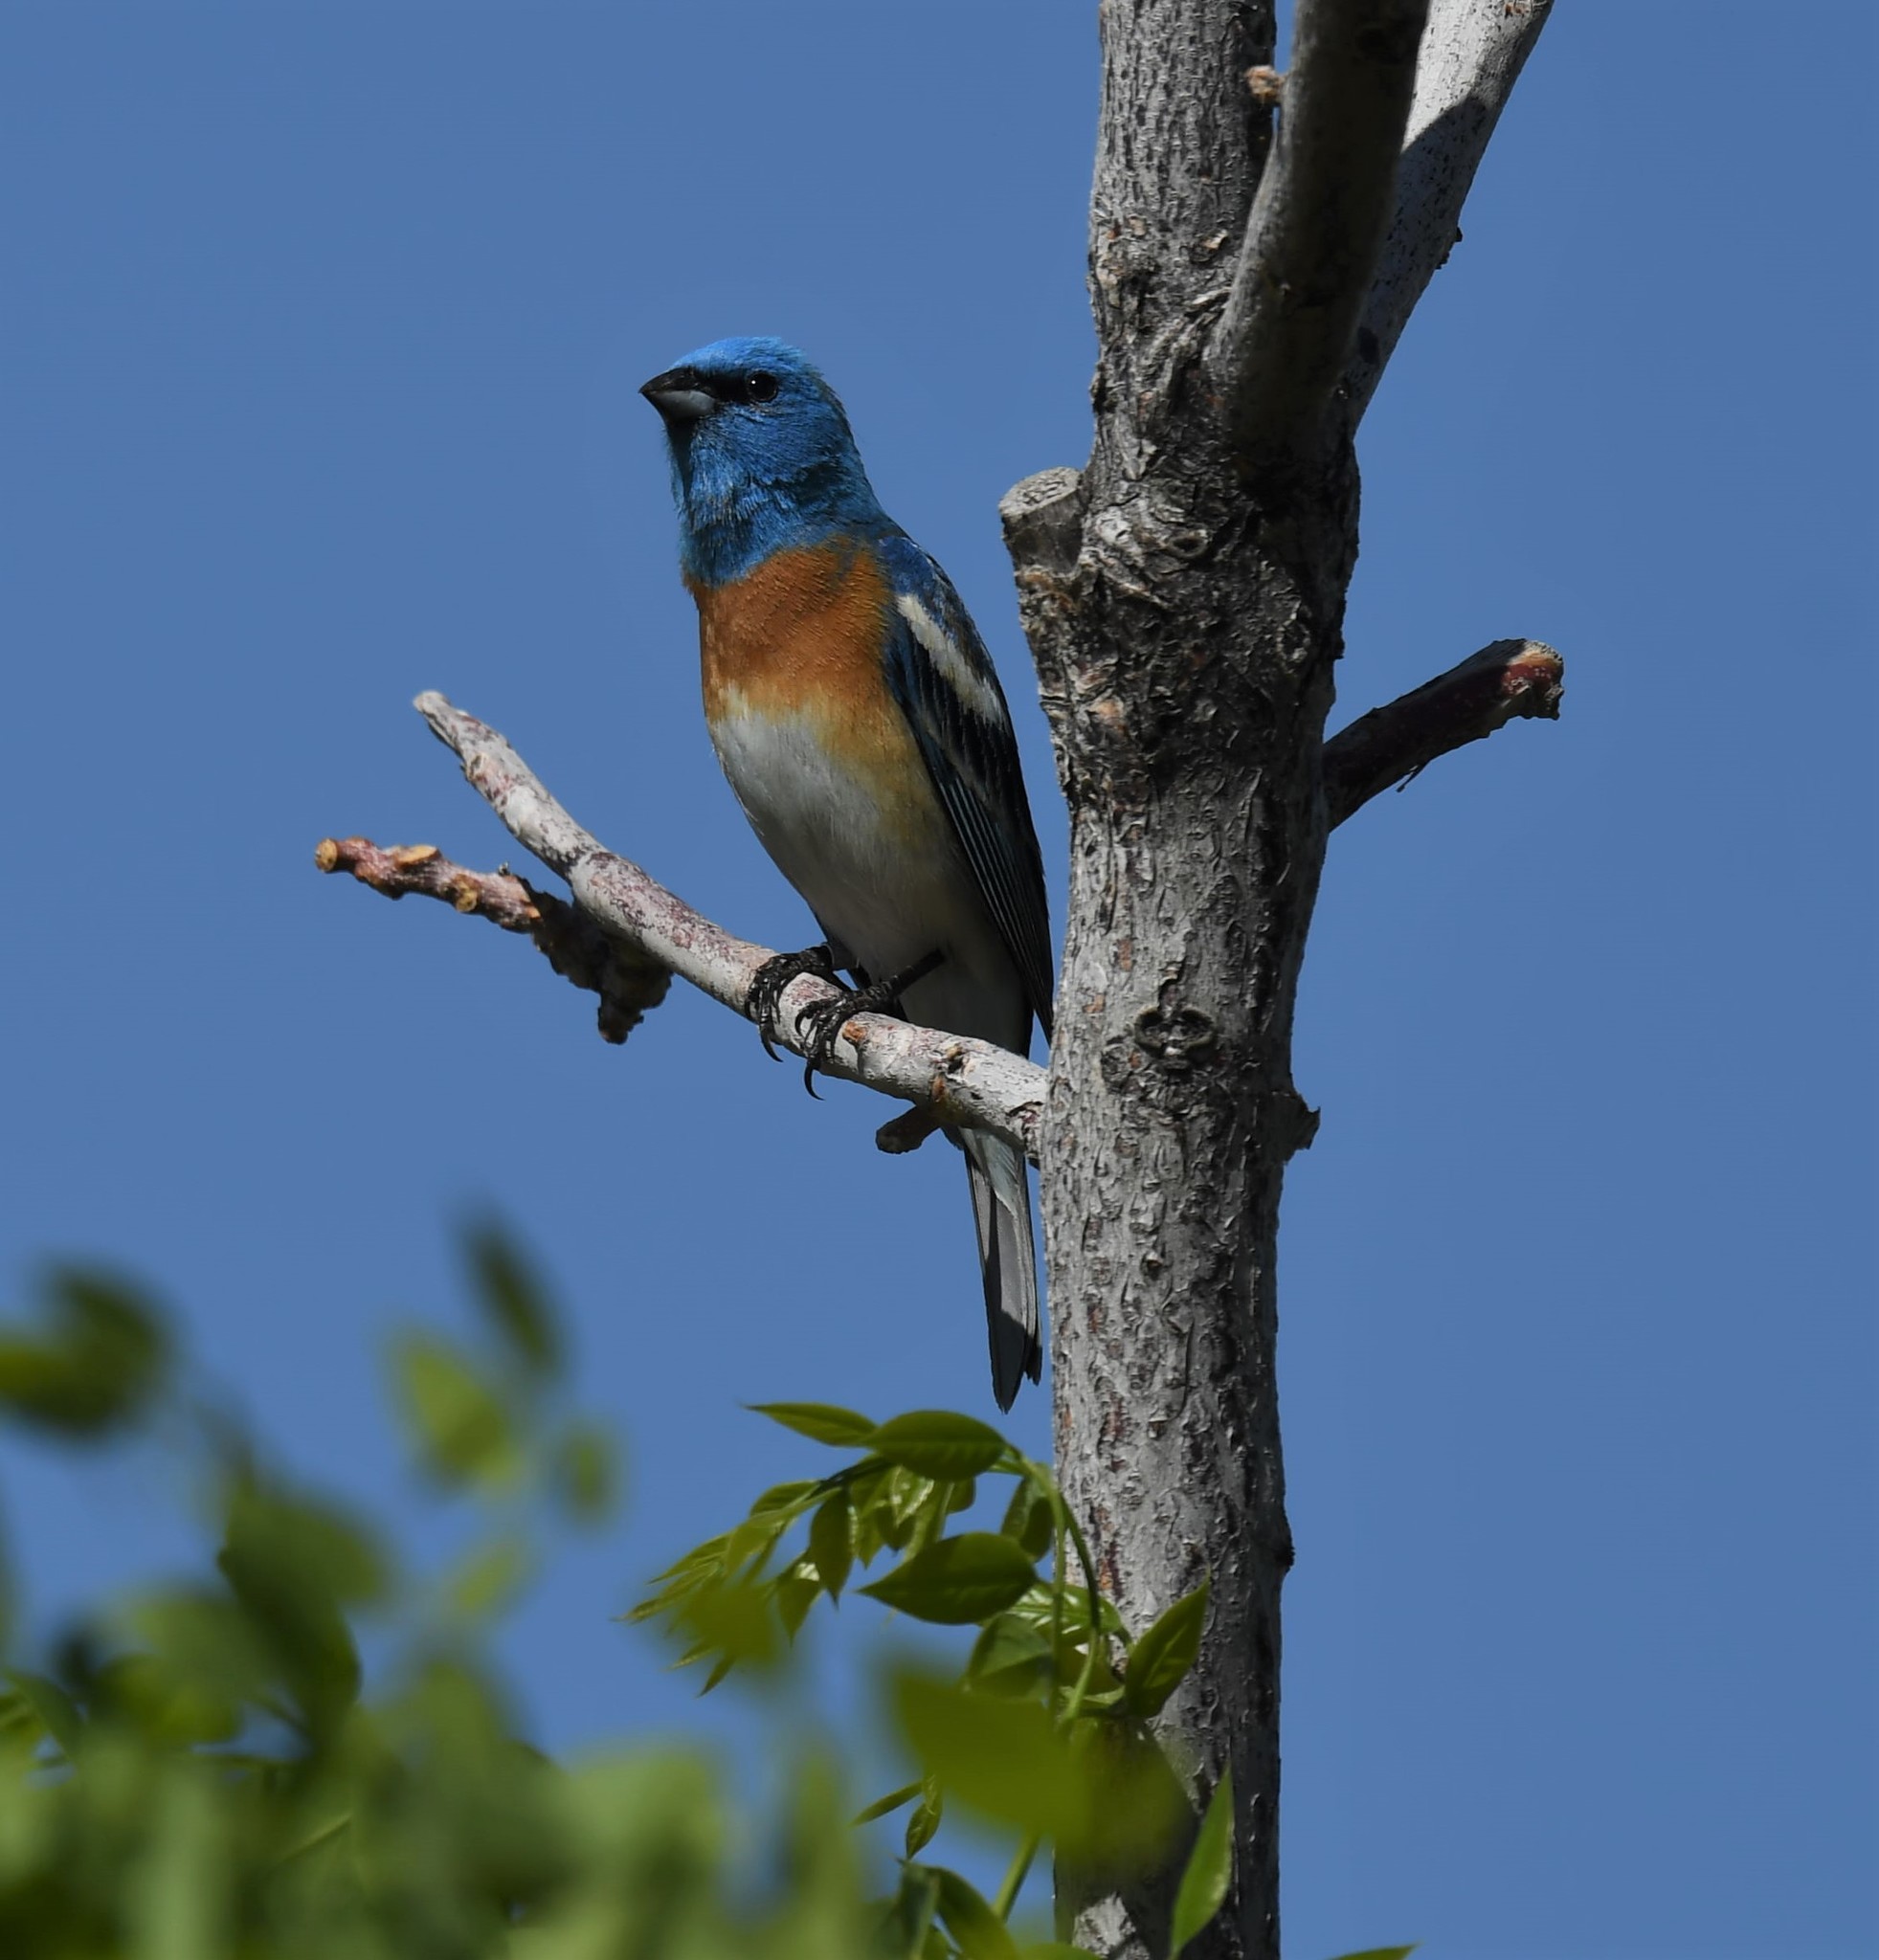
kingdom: Animalia
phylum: Chordata
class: Aves
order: Passeriformes
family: Cardinalidae
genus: Passerina
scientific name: Passerina amoena
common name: Lazuli bunting
